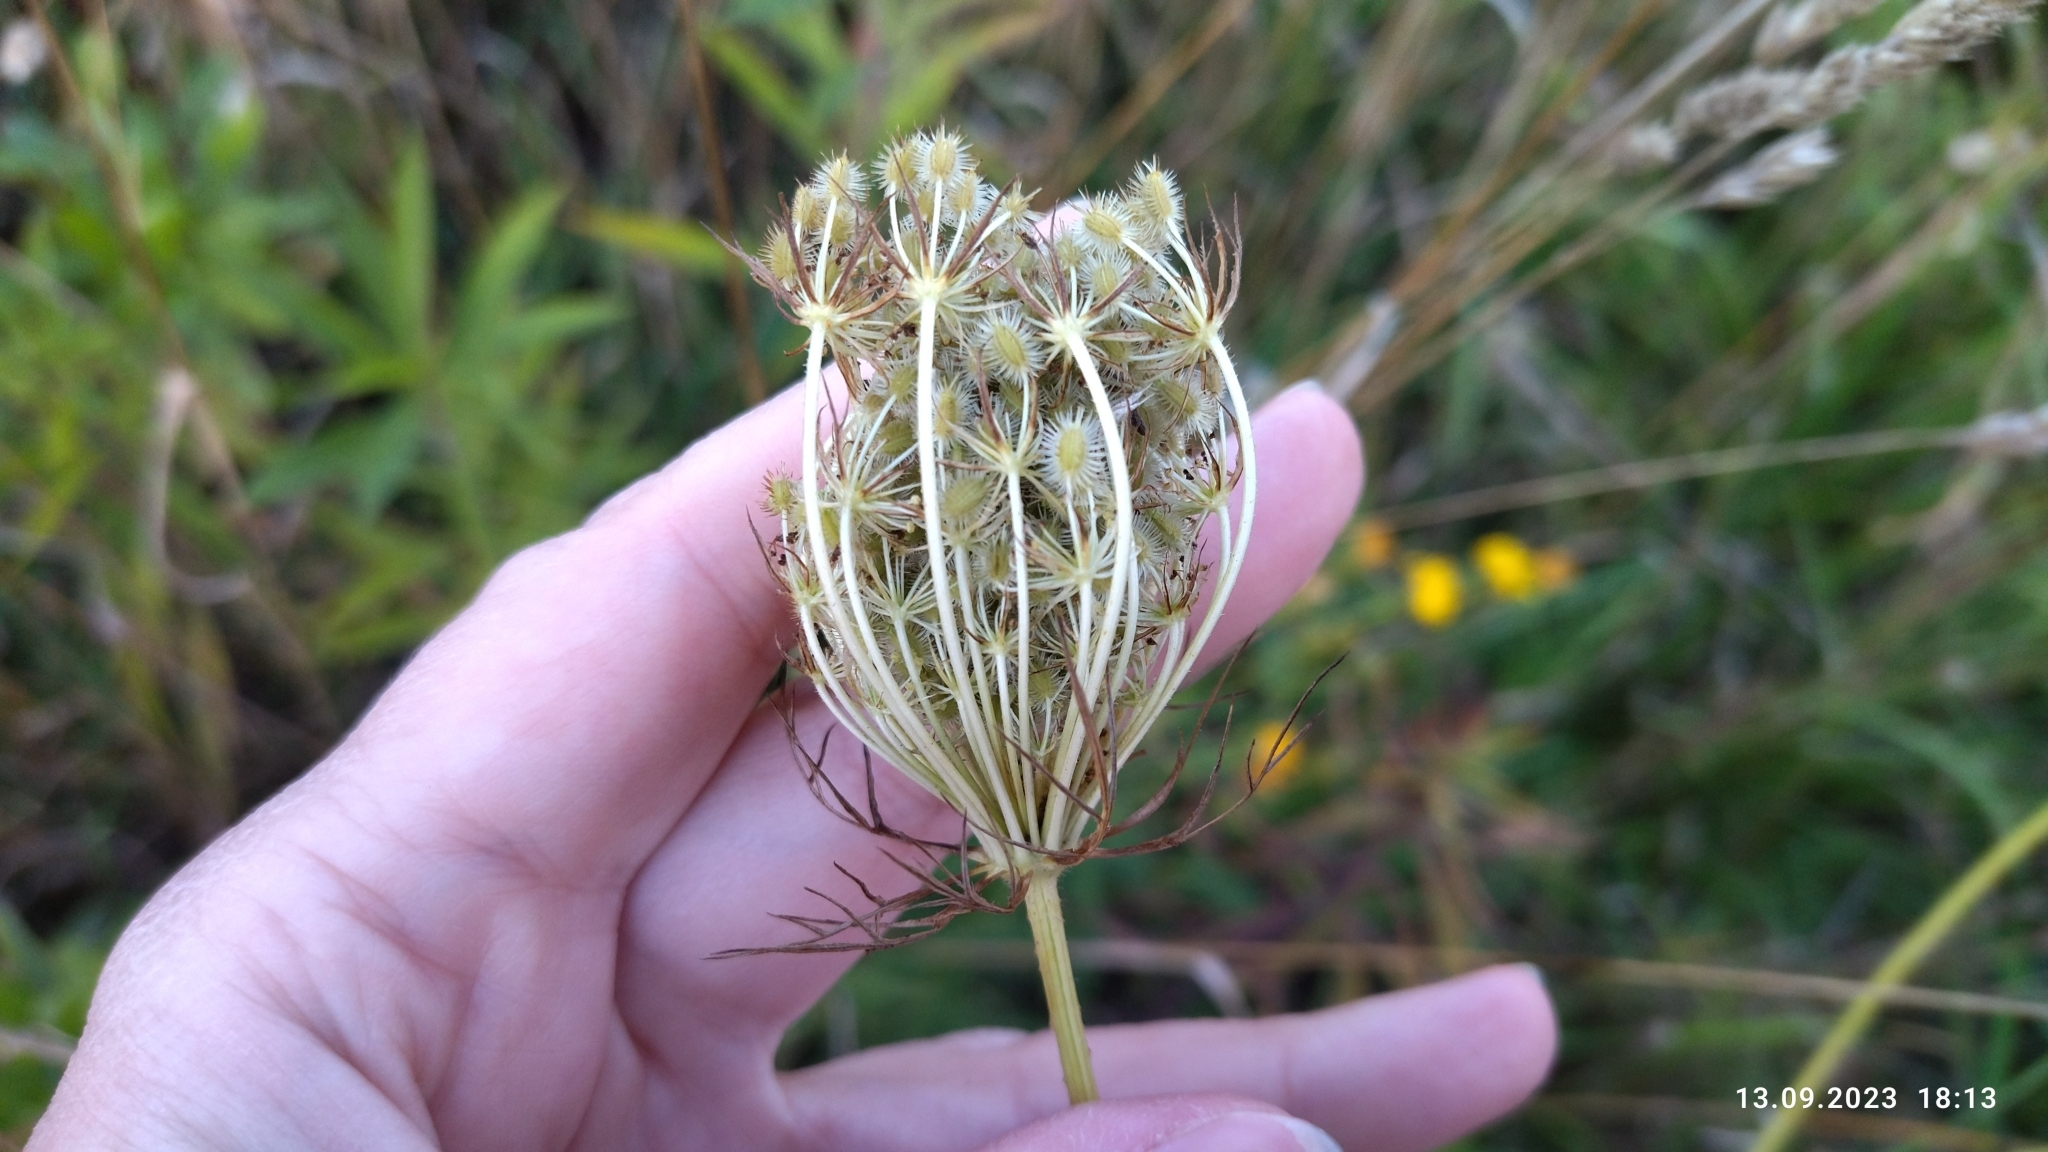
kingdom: Plantae
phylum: Tracheophyta
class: Magnoliopsida
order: Apiales
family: Apiaceae
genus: Daucus
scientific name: Daucus carota
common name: Wild carrot
